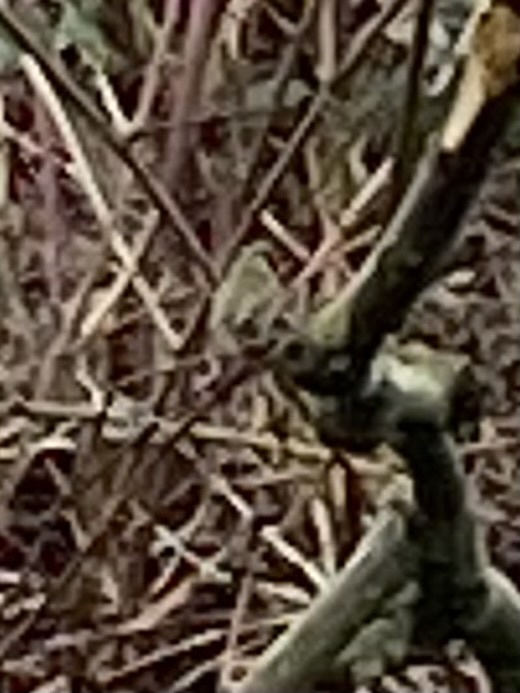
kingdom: Animalia
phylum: Chordata
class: Aves
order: Passeriformes
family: Passerellidae
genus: Zonotrichia
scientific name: Zonotrichia querula
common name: Harris's sparrow
